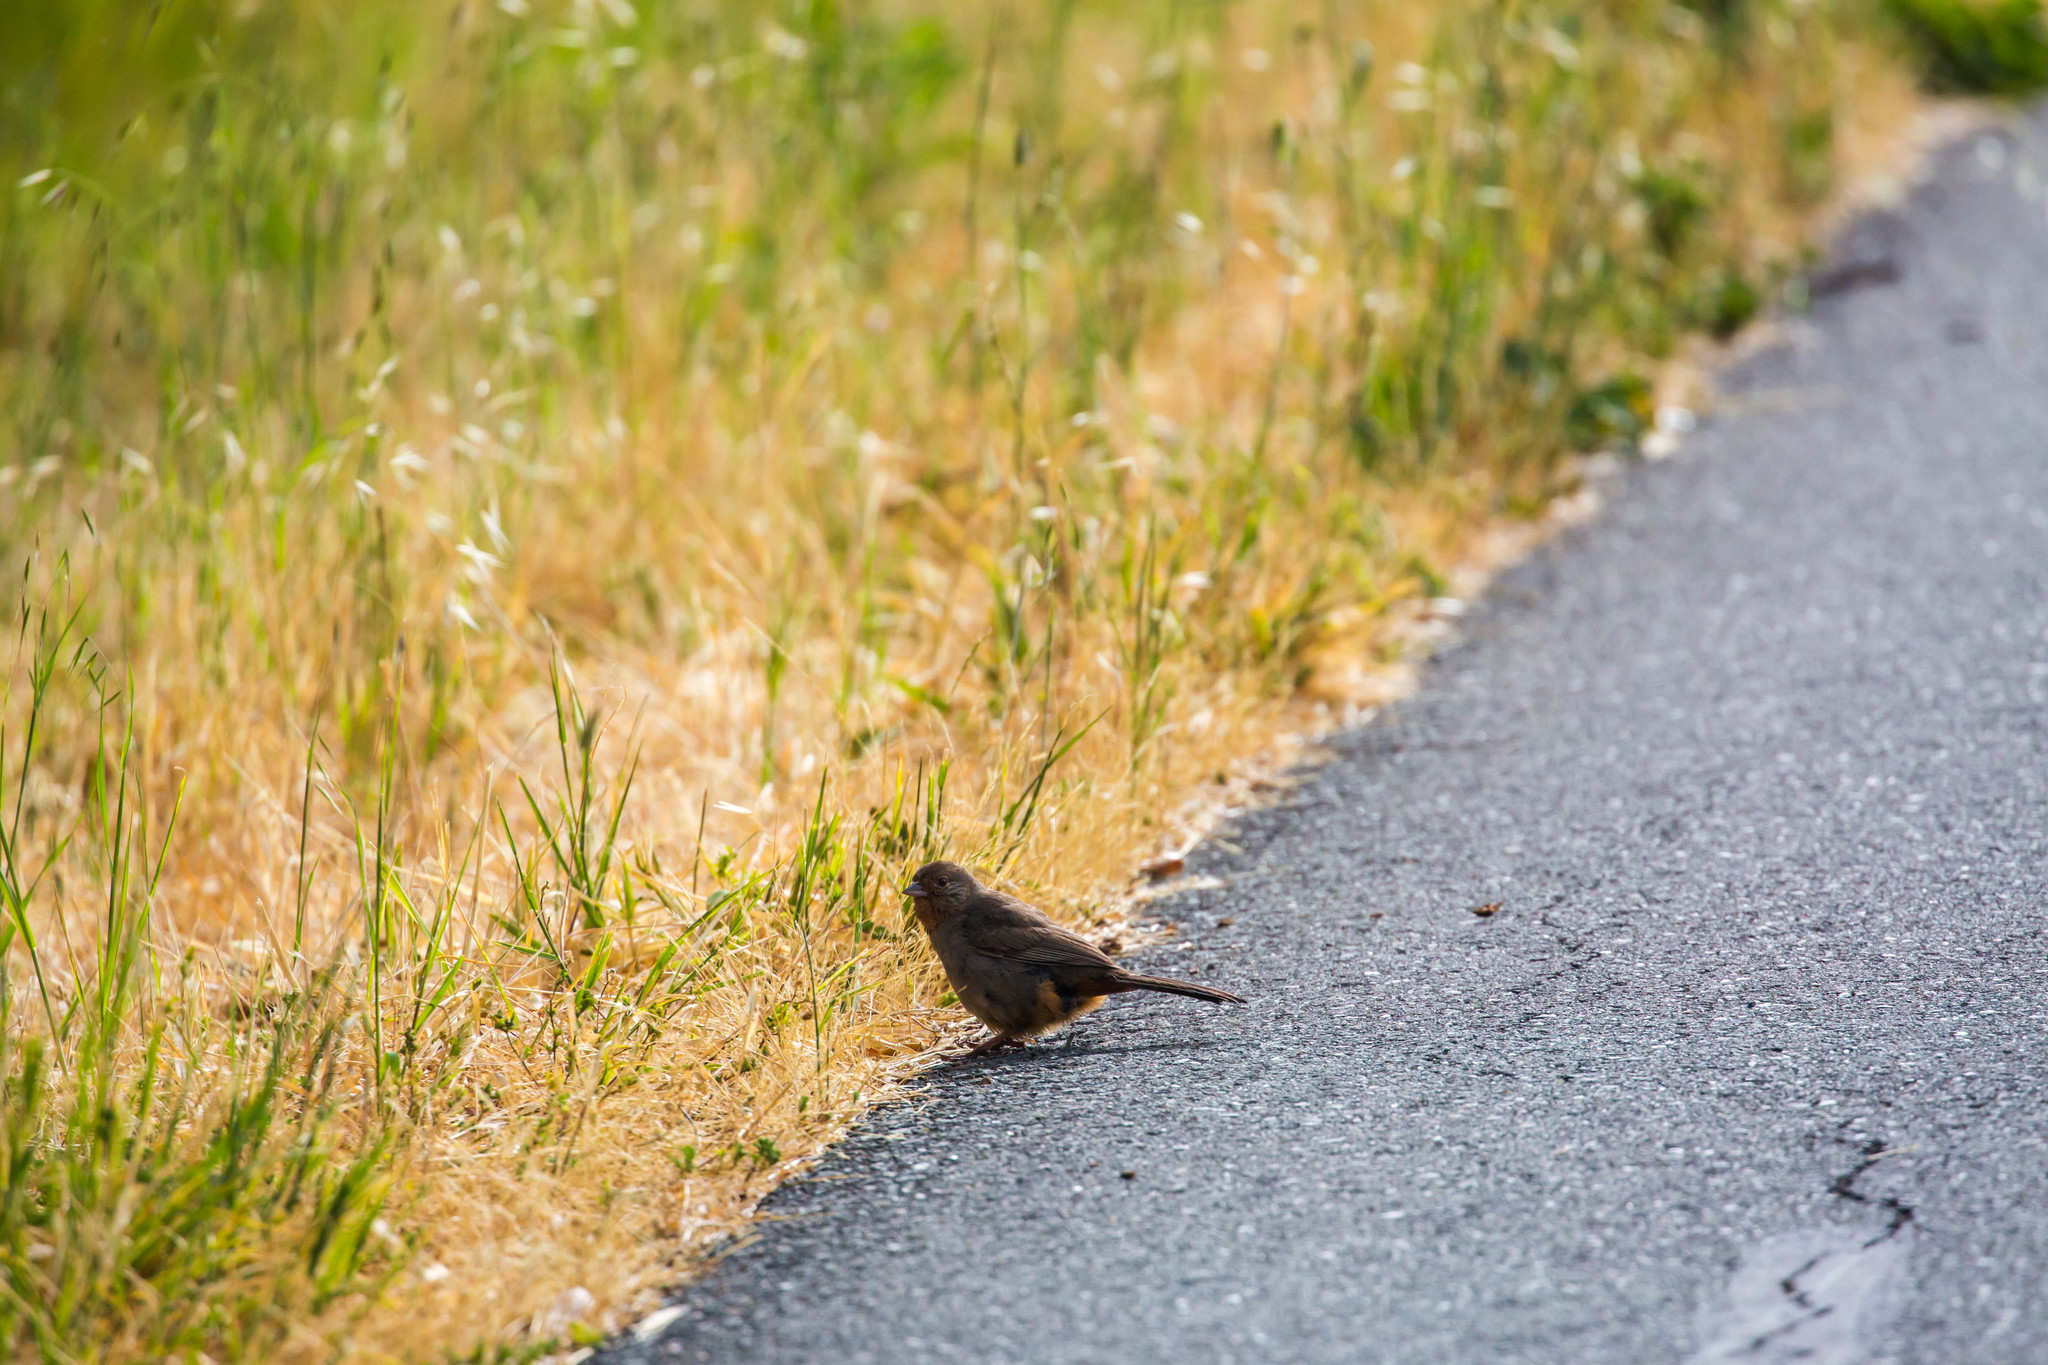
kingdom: Animalia
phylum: Chordata
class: Aves
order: Passeriformes
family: Passerellidae
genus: Melozone
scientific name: Melozone crissalis
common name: California towhee
